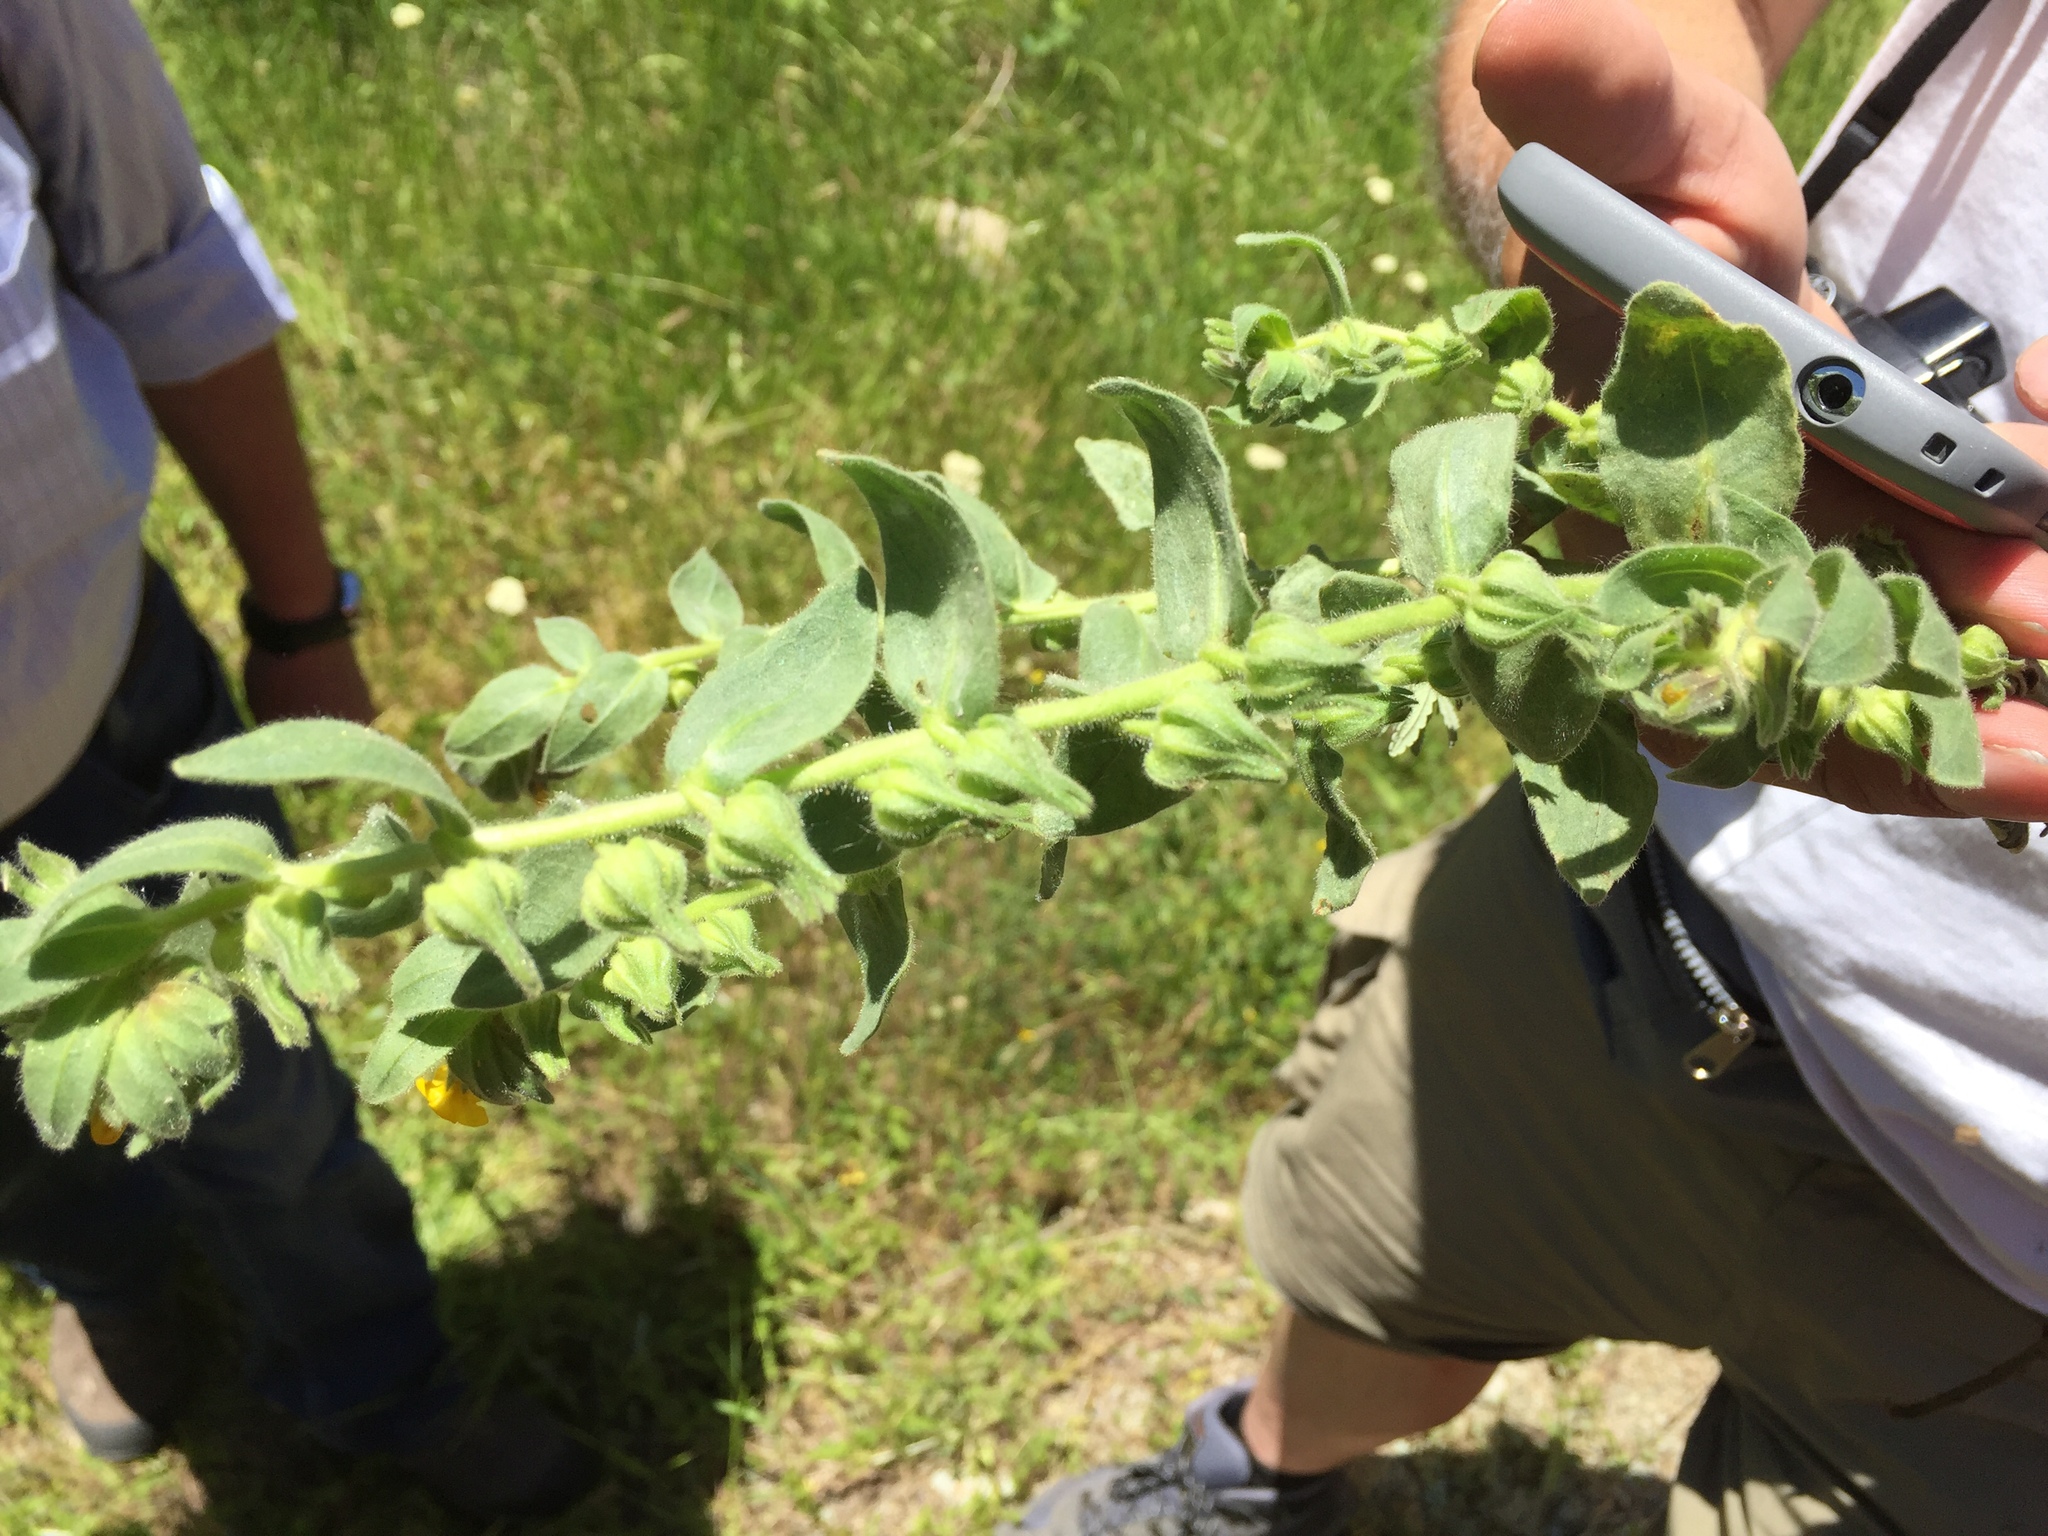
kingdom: Plantae
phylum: Tracheophyta
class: Magnoliopsida
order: Boraginales
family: Boraginaceae
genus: Alkanna
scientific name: Alkanna orientalis
